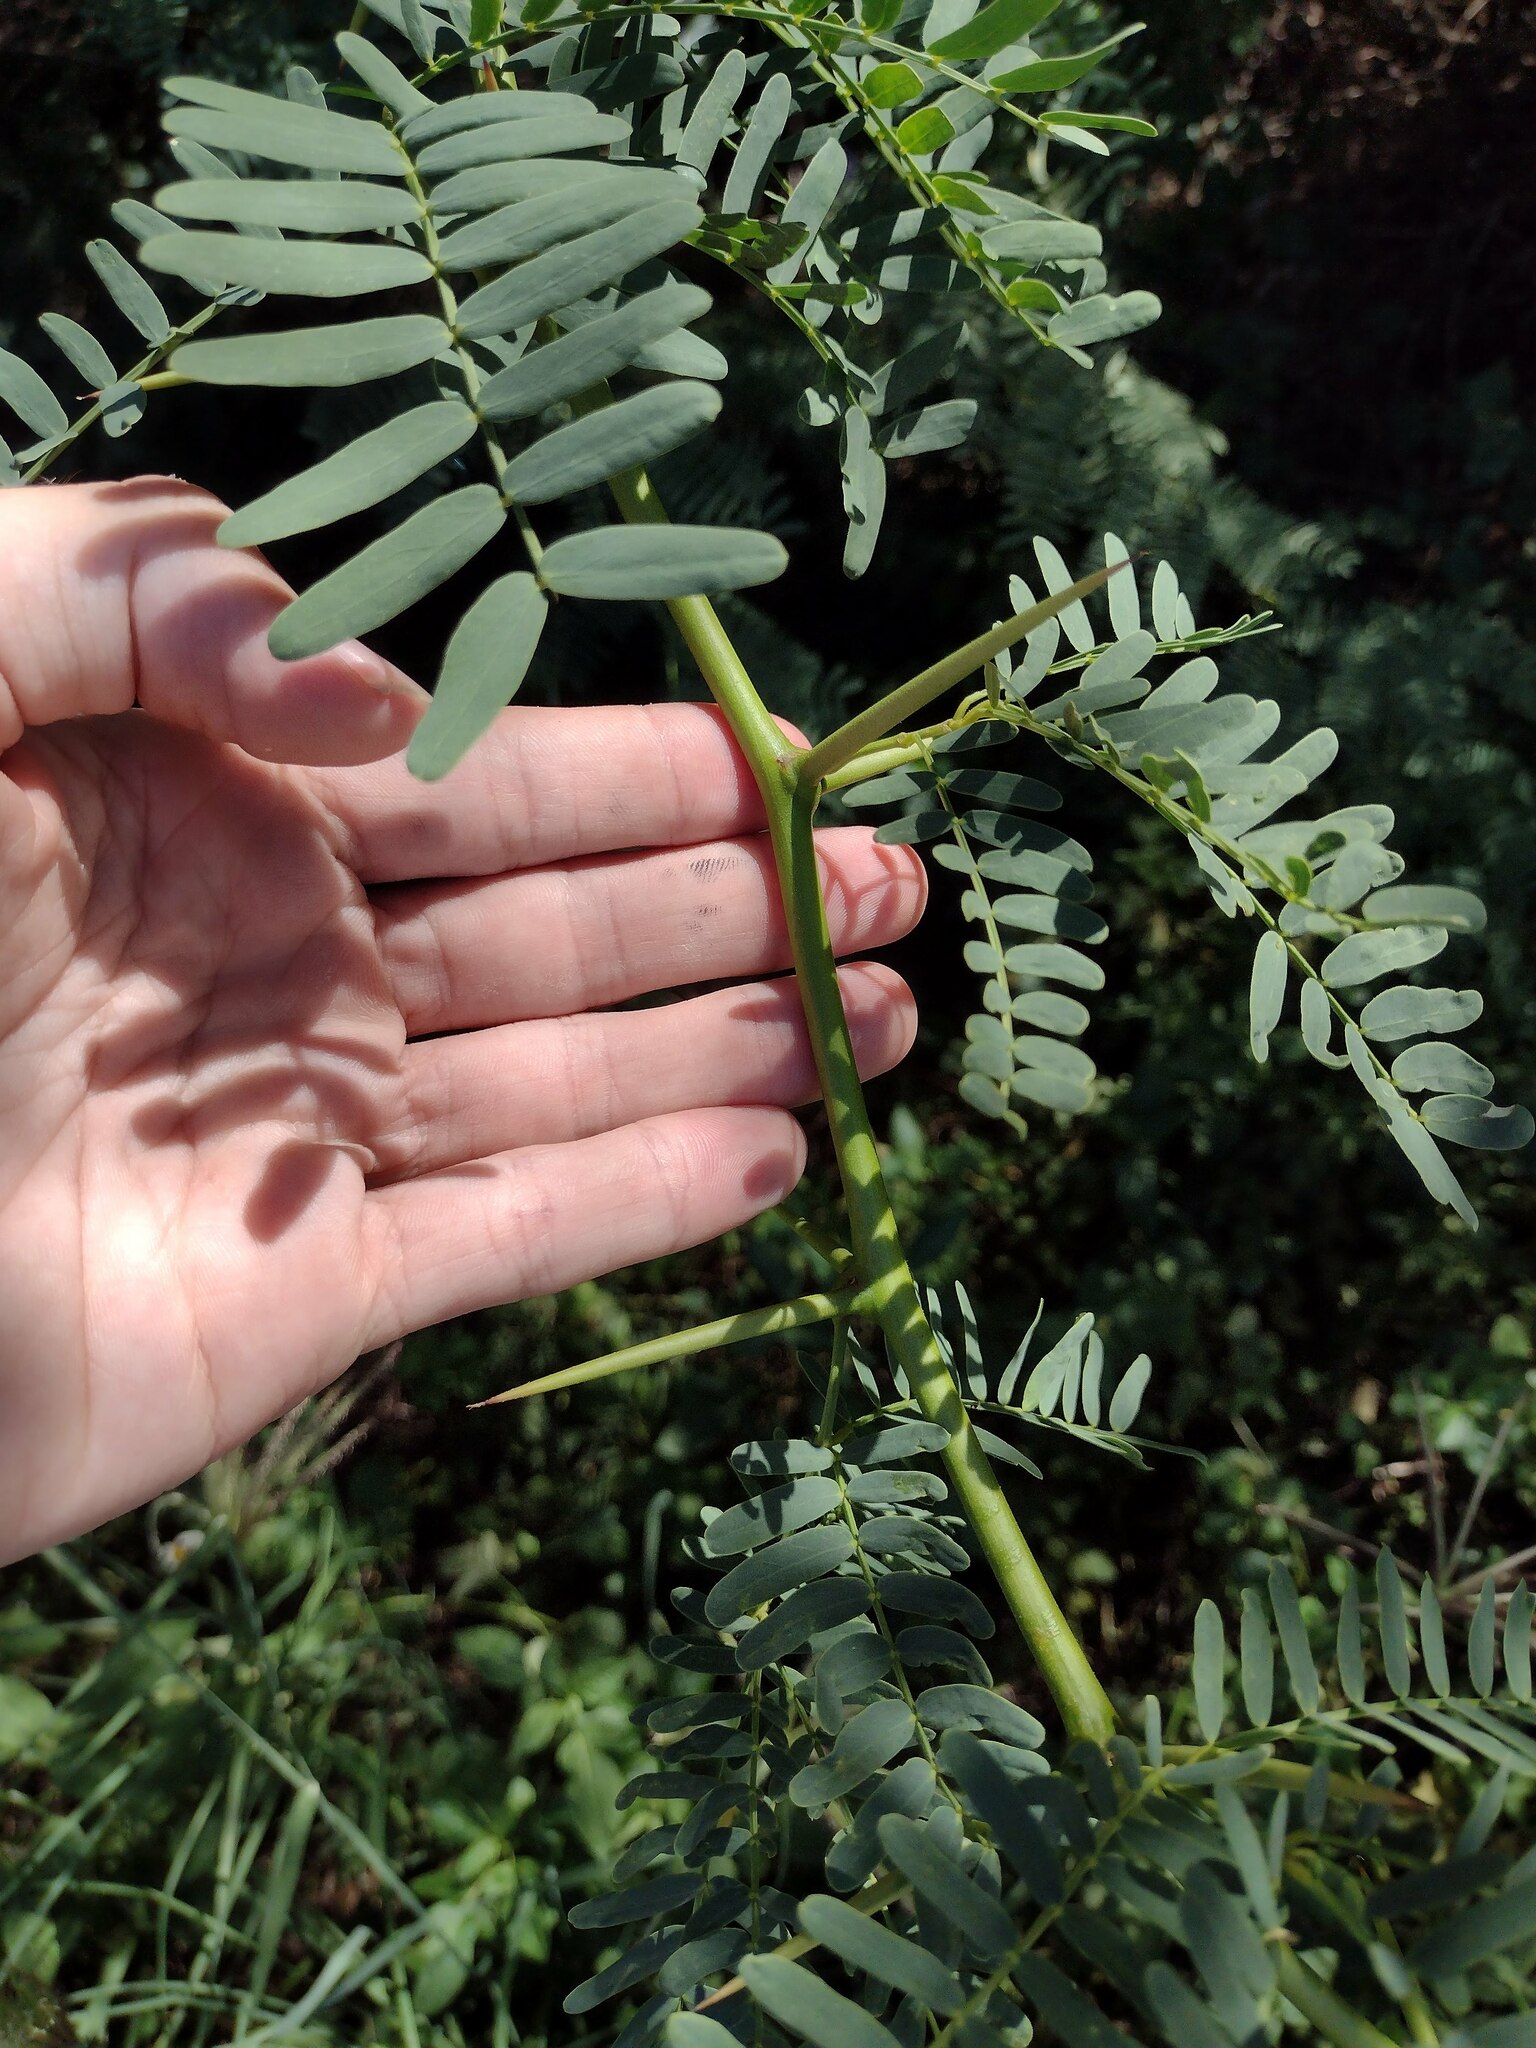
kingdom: Plantae
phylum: Tracheophyta
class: Magnoliopsida
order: Fabales
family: Fabaceae
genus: Prosopis
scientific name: Prosopis juliflora
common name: Mesquite
